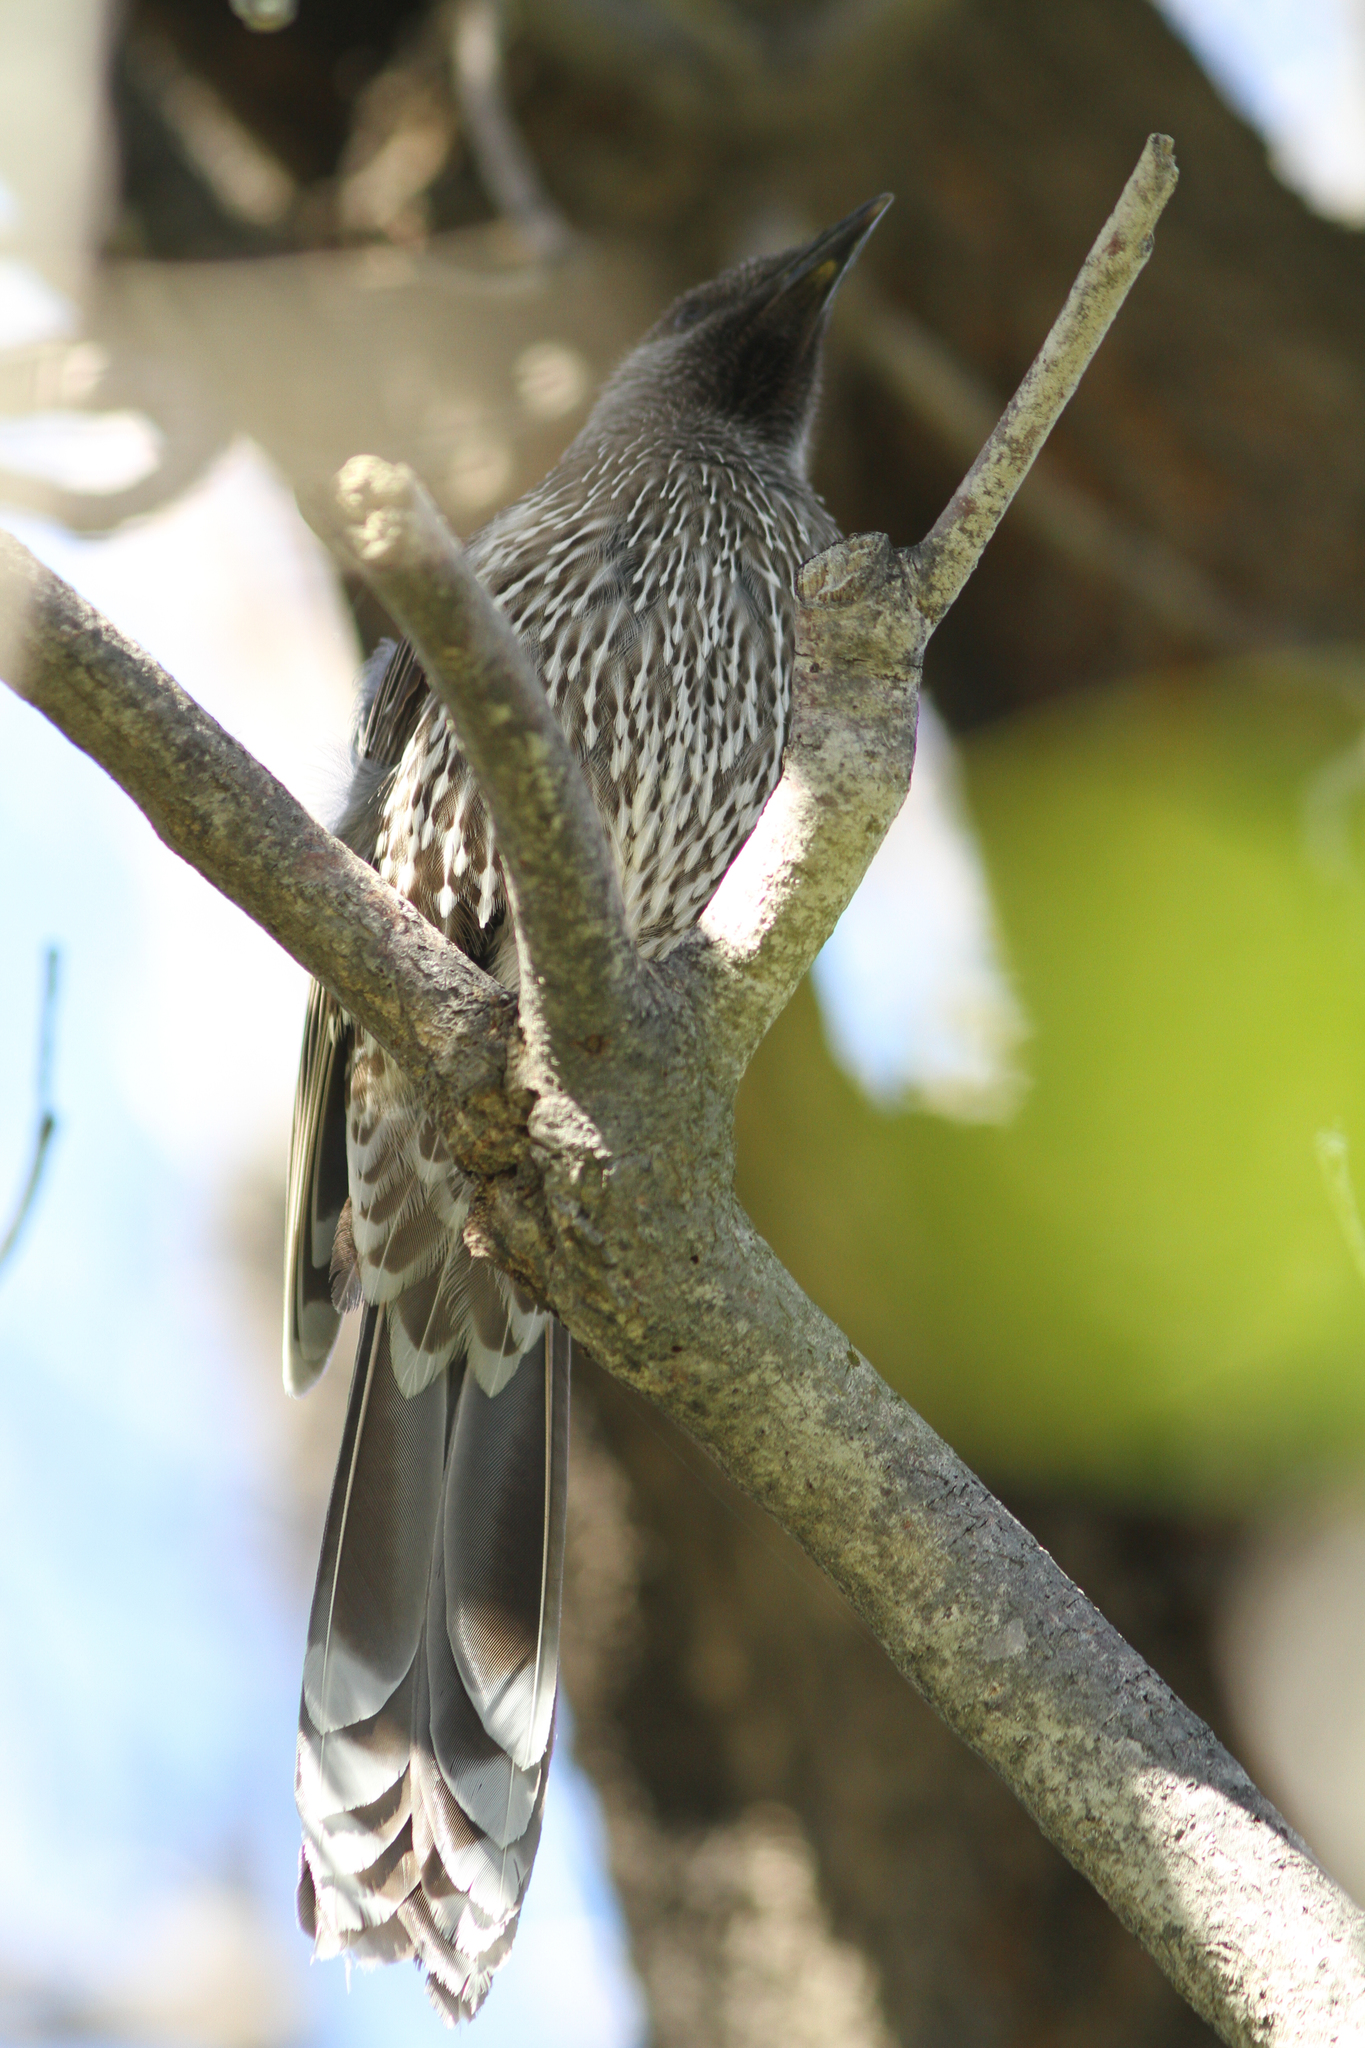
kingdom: Animalia
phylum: Chordata
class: Aves
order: Passeriformes
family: Meliphagidae
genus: Anthochaera
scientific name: Anthochaera chrysoptera
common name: Little wattlebird
